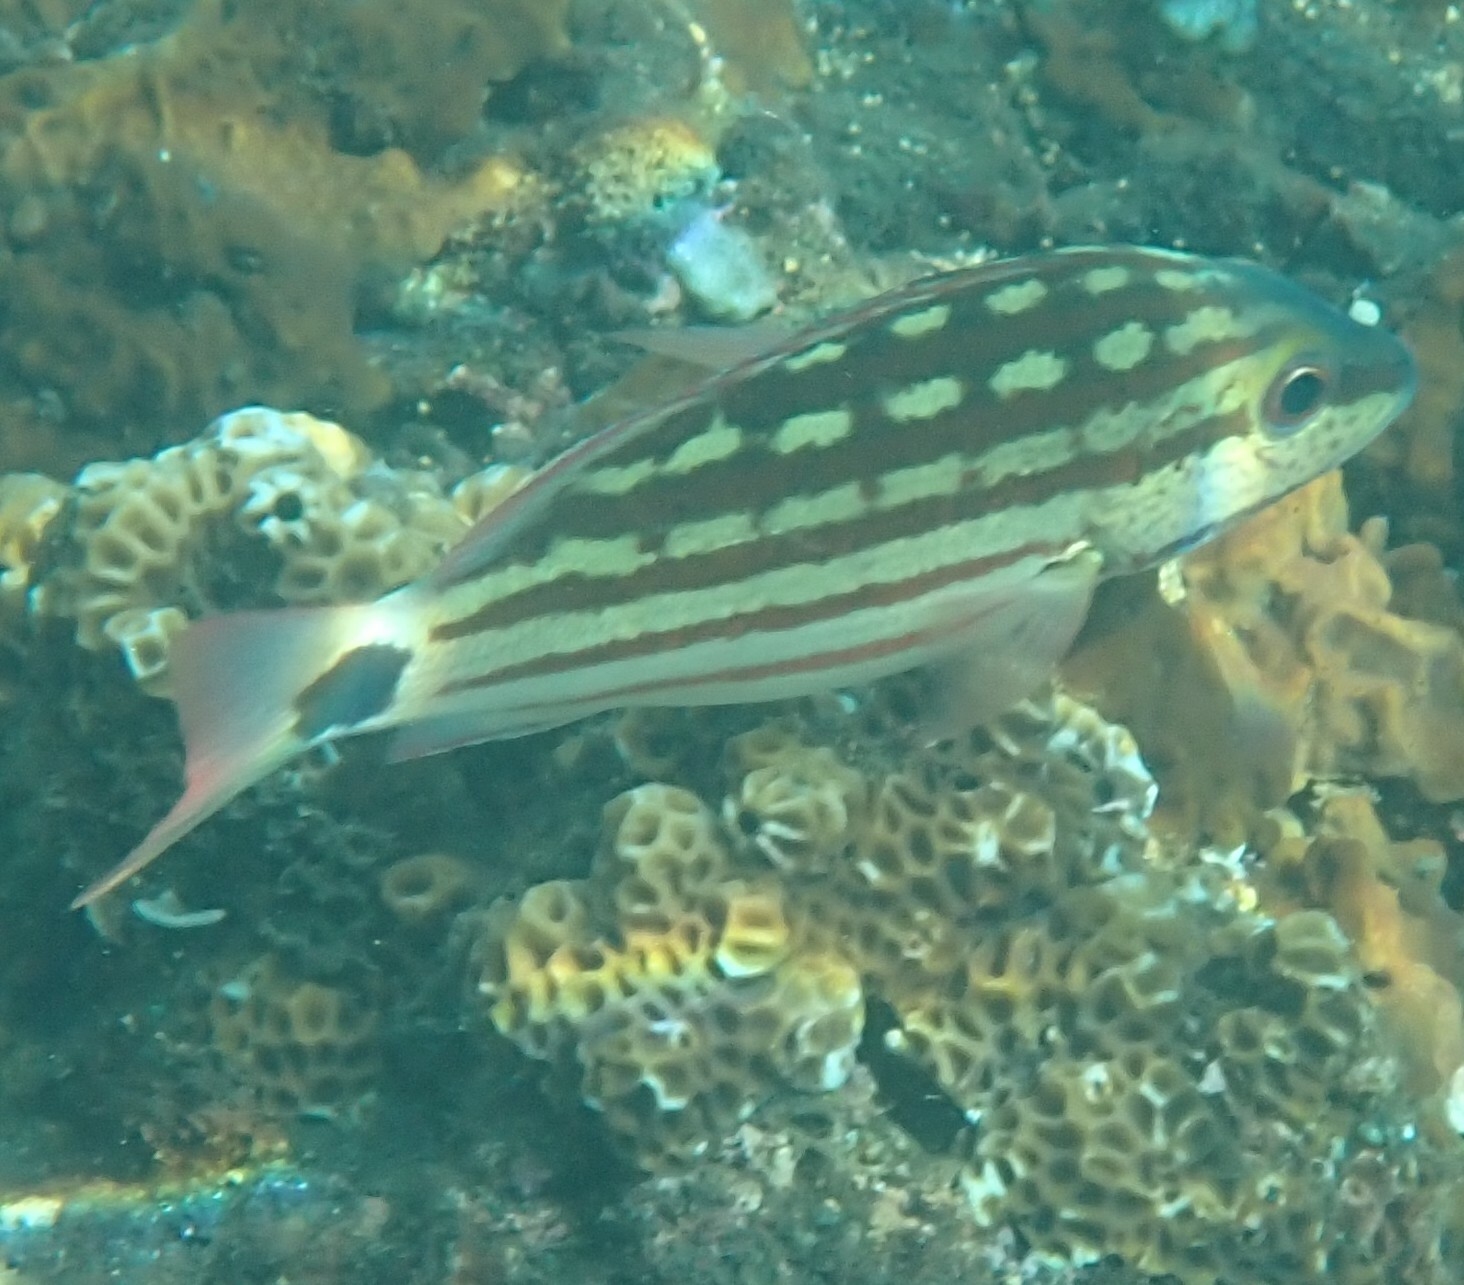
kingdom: Animalia
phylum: Chordata
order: Perciformes
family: Lutjanidae
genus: Lutjanus
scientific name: Lutjanus decussatus
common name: Checkered snapper
